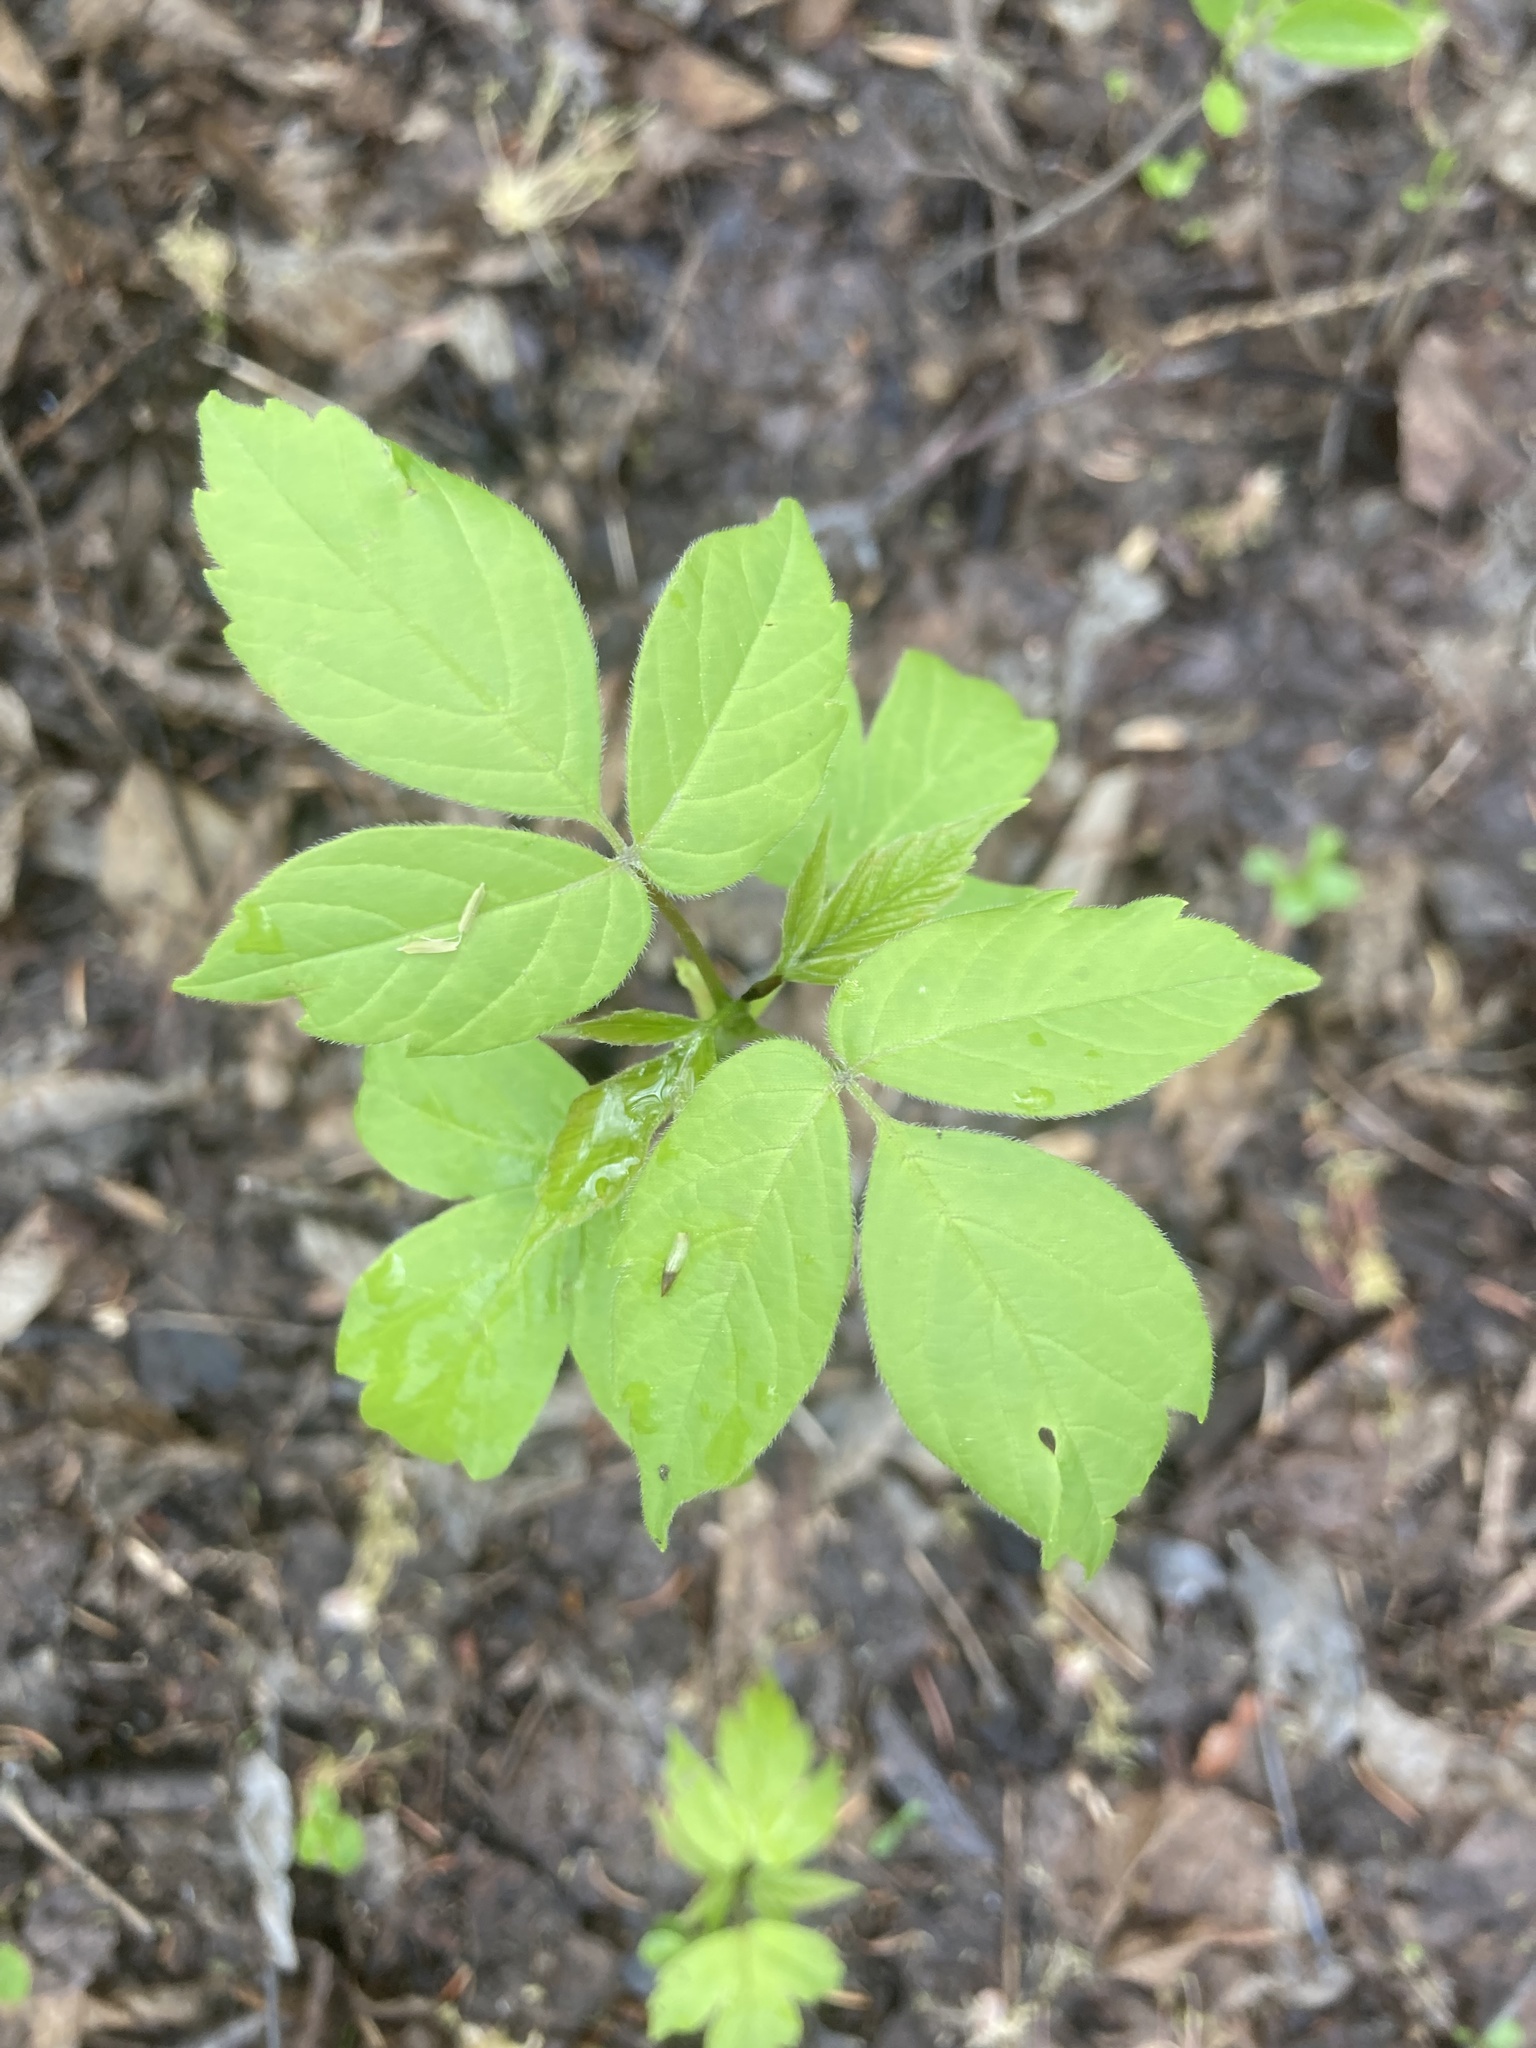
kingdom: Plantae
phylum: Tracheophyta
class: Magnoliopsida
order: Sapindales
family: Sapindaceae
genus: Acer
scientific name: Acer negundo
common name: Ashleaf maple
